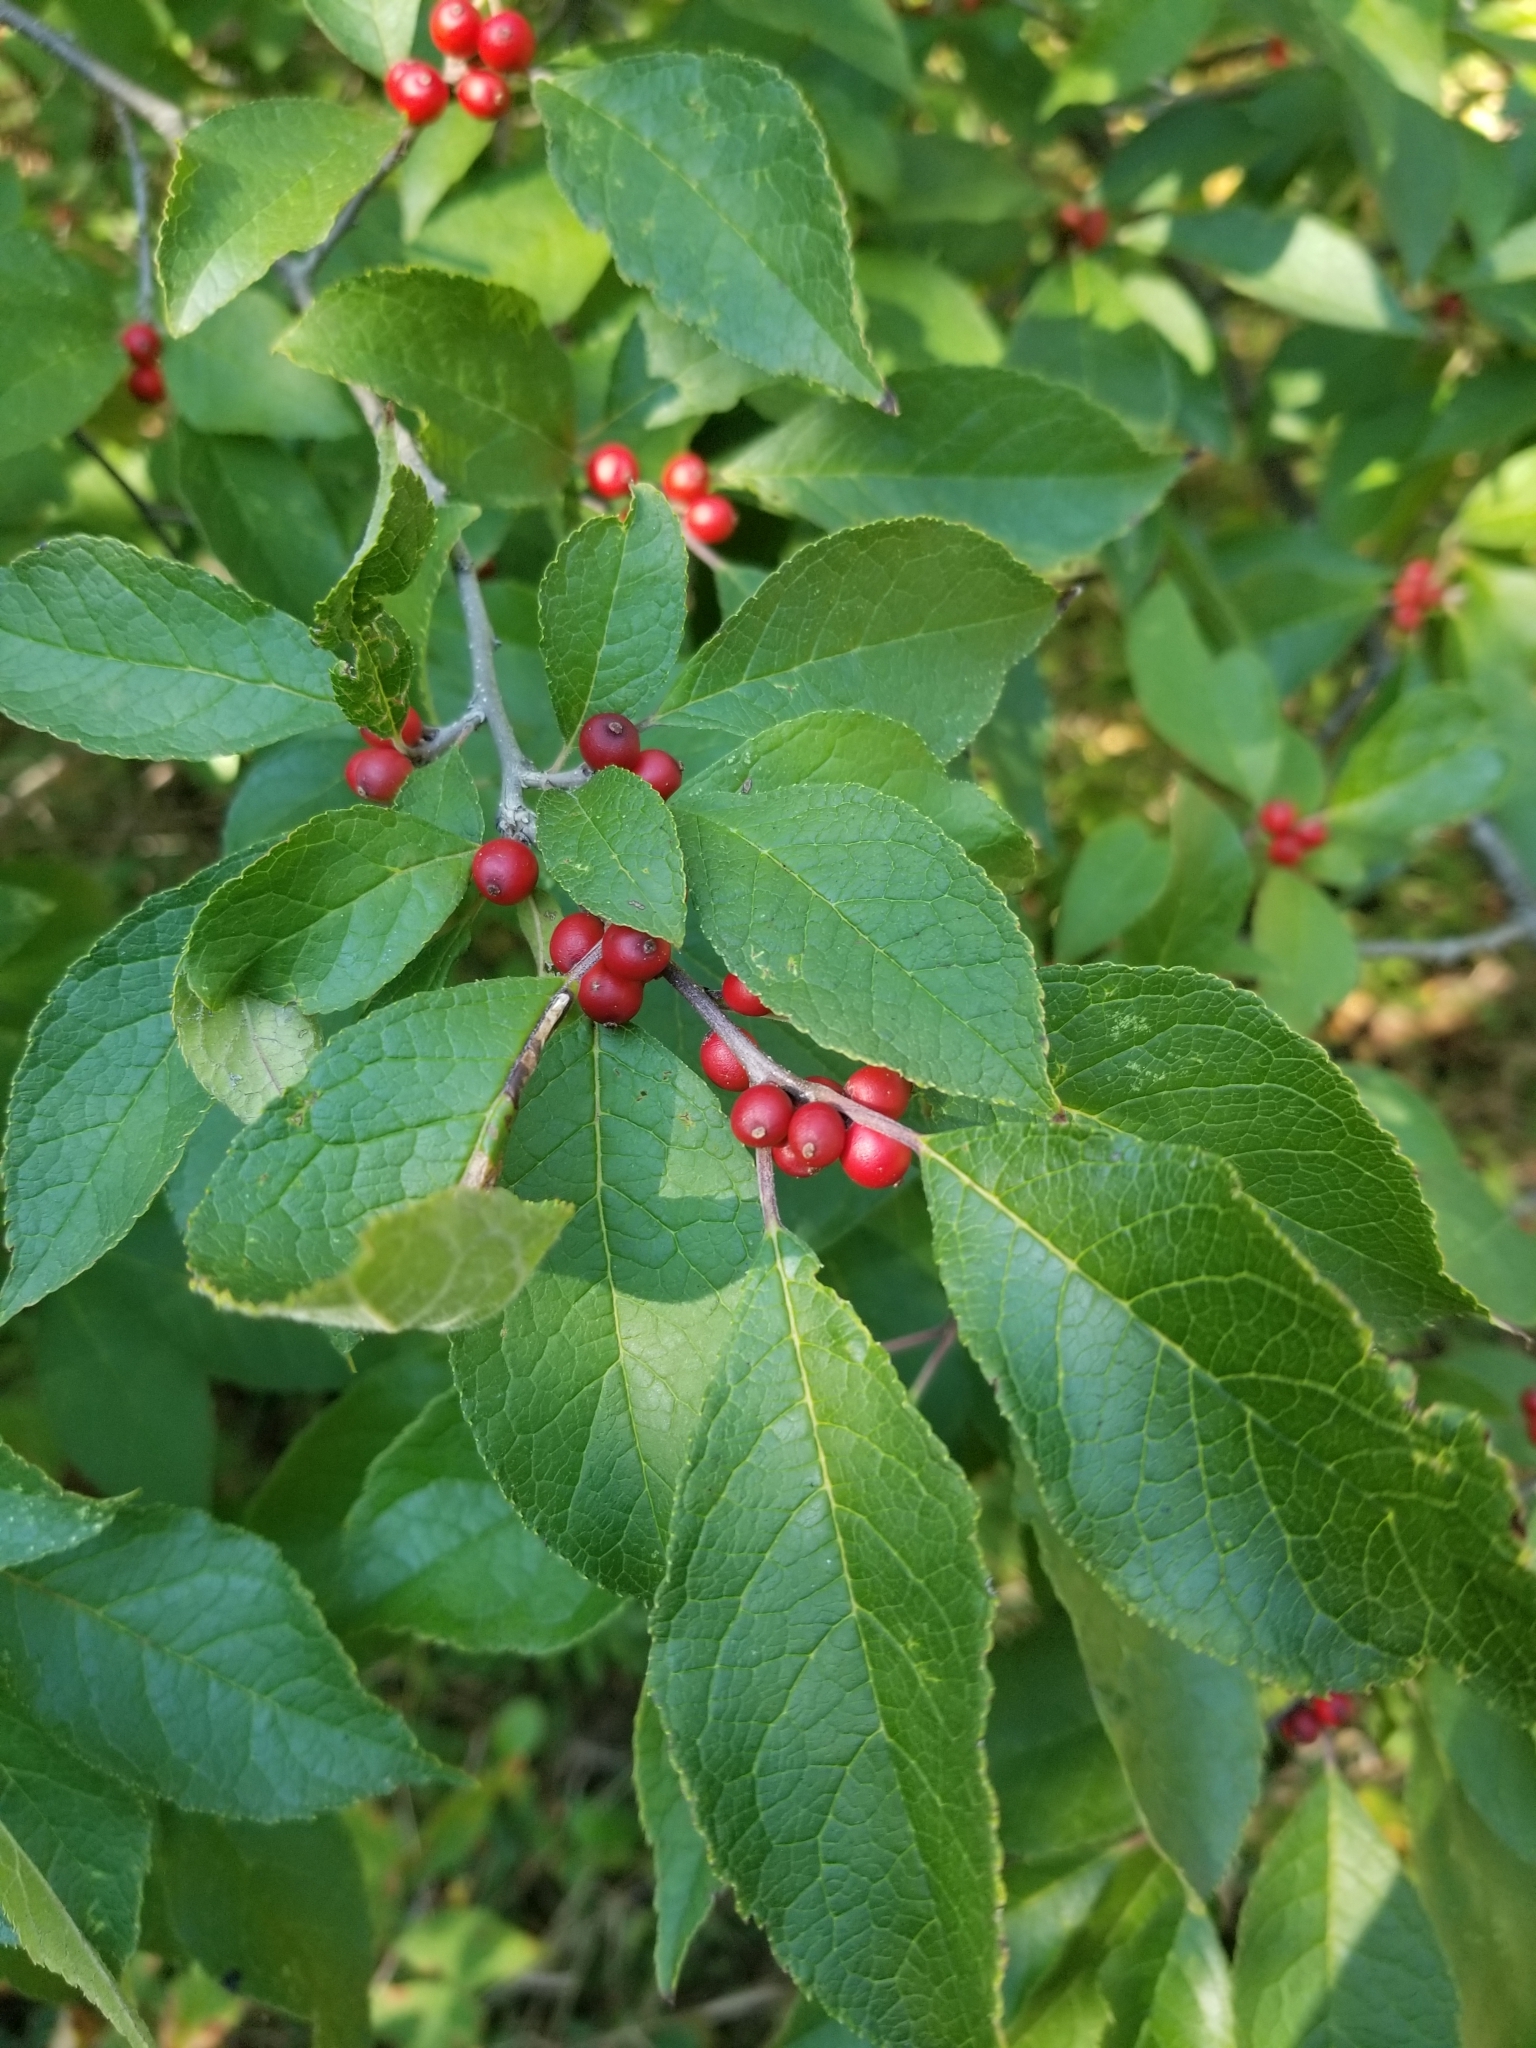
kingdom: Plantae
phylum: Tracheophyta
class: Magnoliopsida
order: Aquifoliales
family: Aquifoliaceae
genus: Ilex
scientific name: Ilex verticillata
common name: Virginia winterberry
